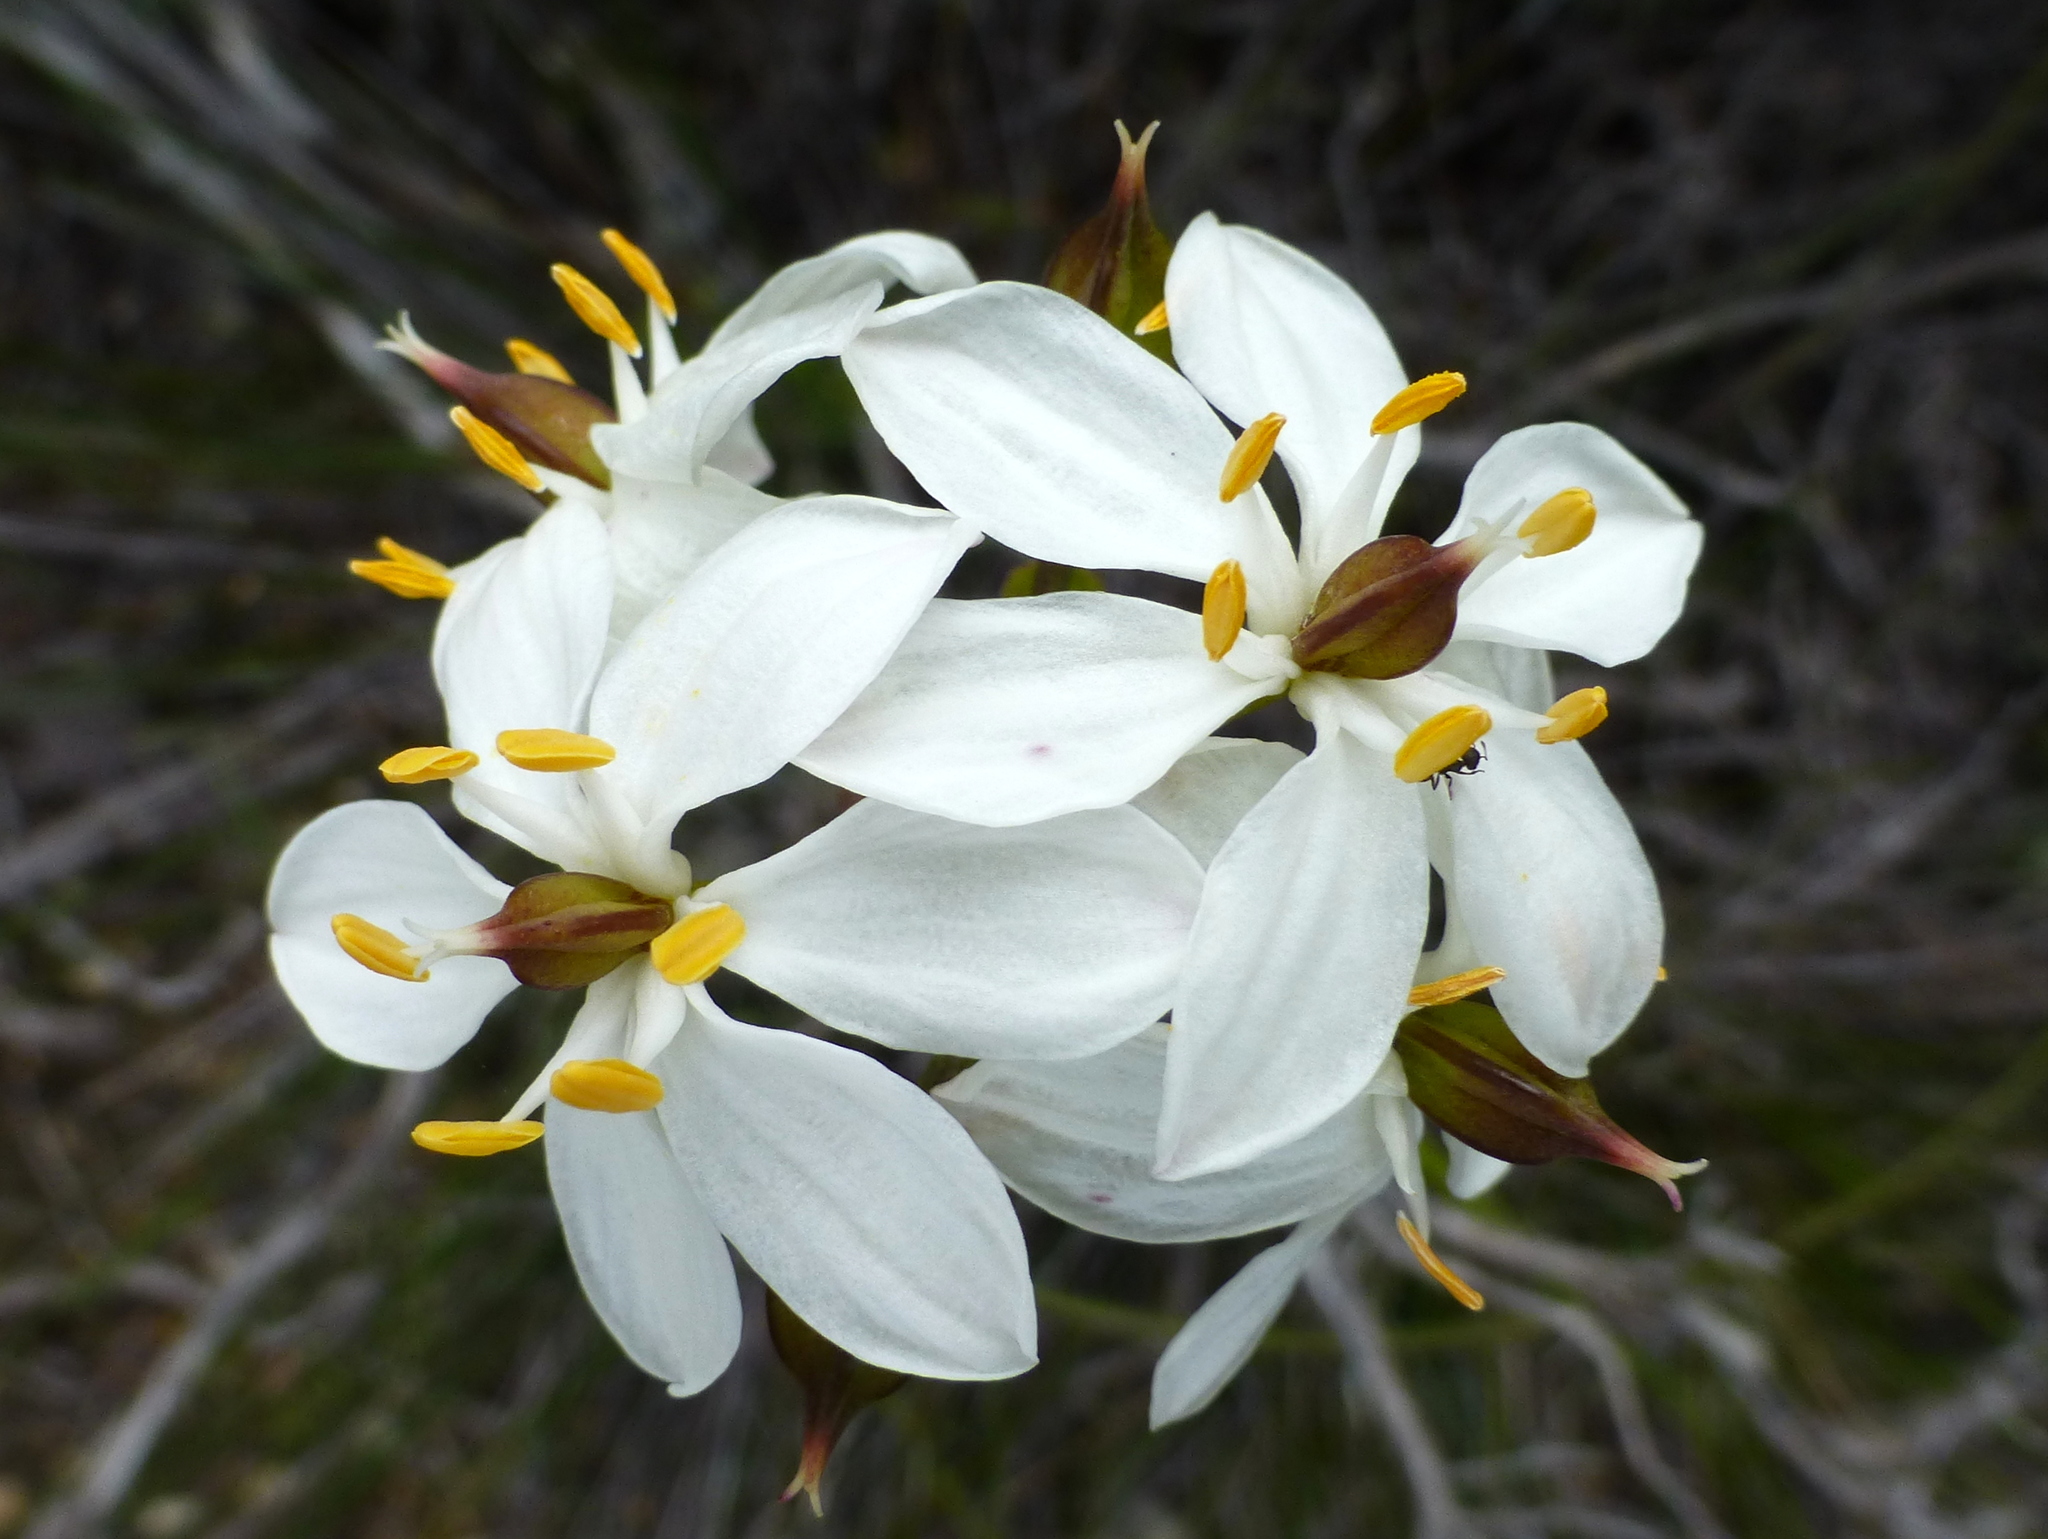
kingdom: Plantae
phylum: Tracheophyta
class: Liliopsida
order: Liliales
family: Colchicaceae
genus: Burchardia
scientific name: Burchardia congesta
